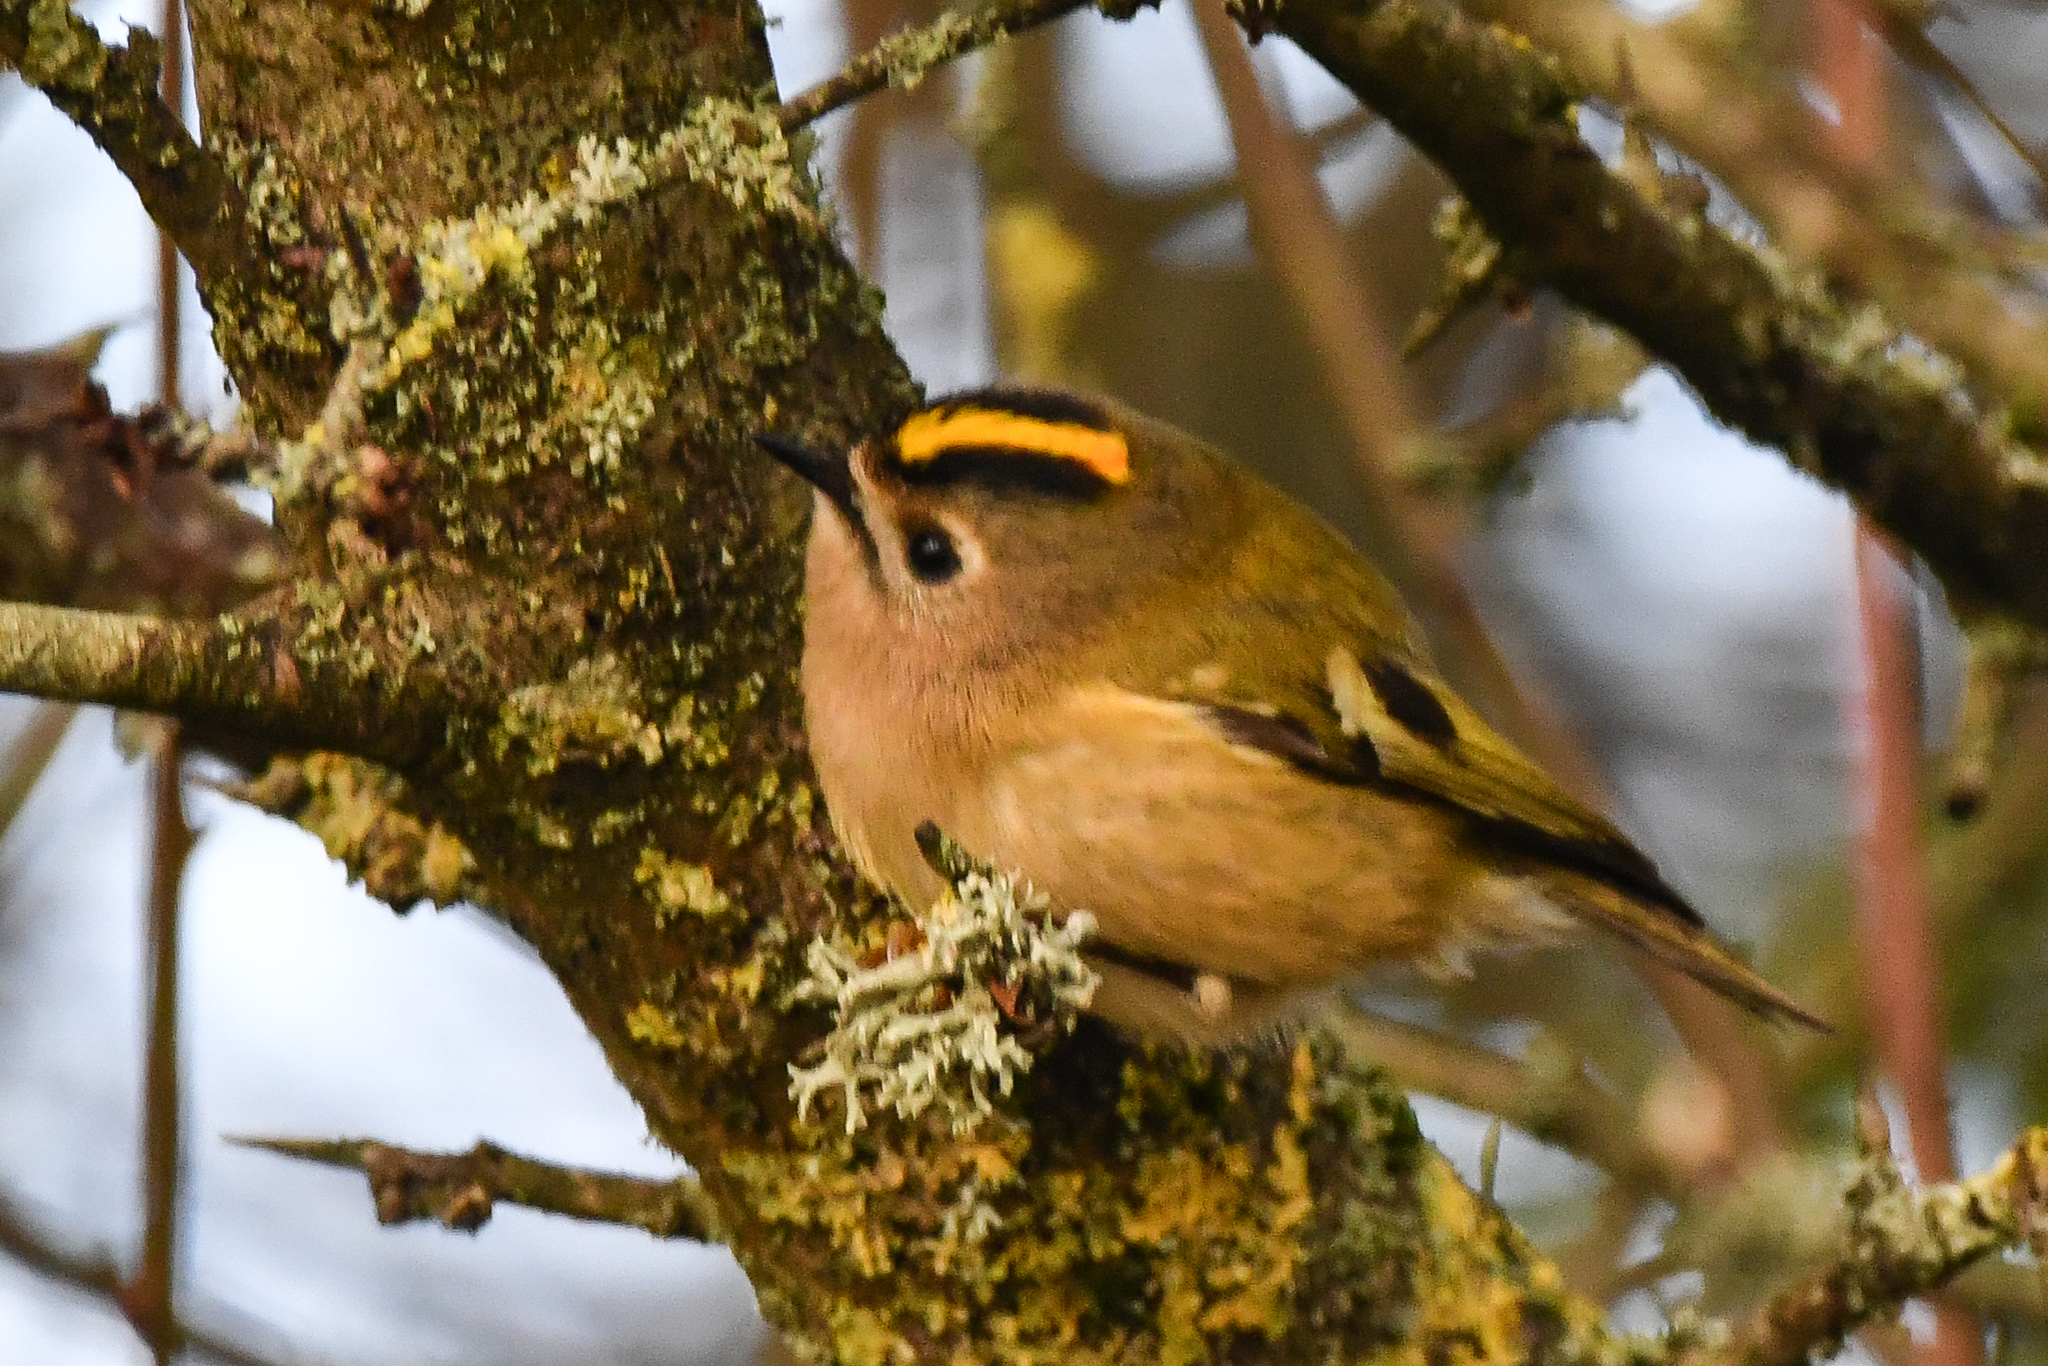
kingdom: Animalia
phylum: Chordata
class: Aves
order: Passeriformes
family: Regulidae
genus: Regulus
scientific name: Regulus regulus
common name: Goldcrest
